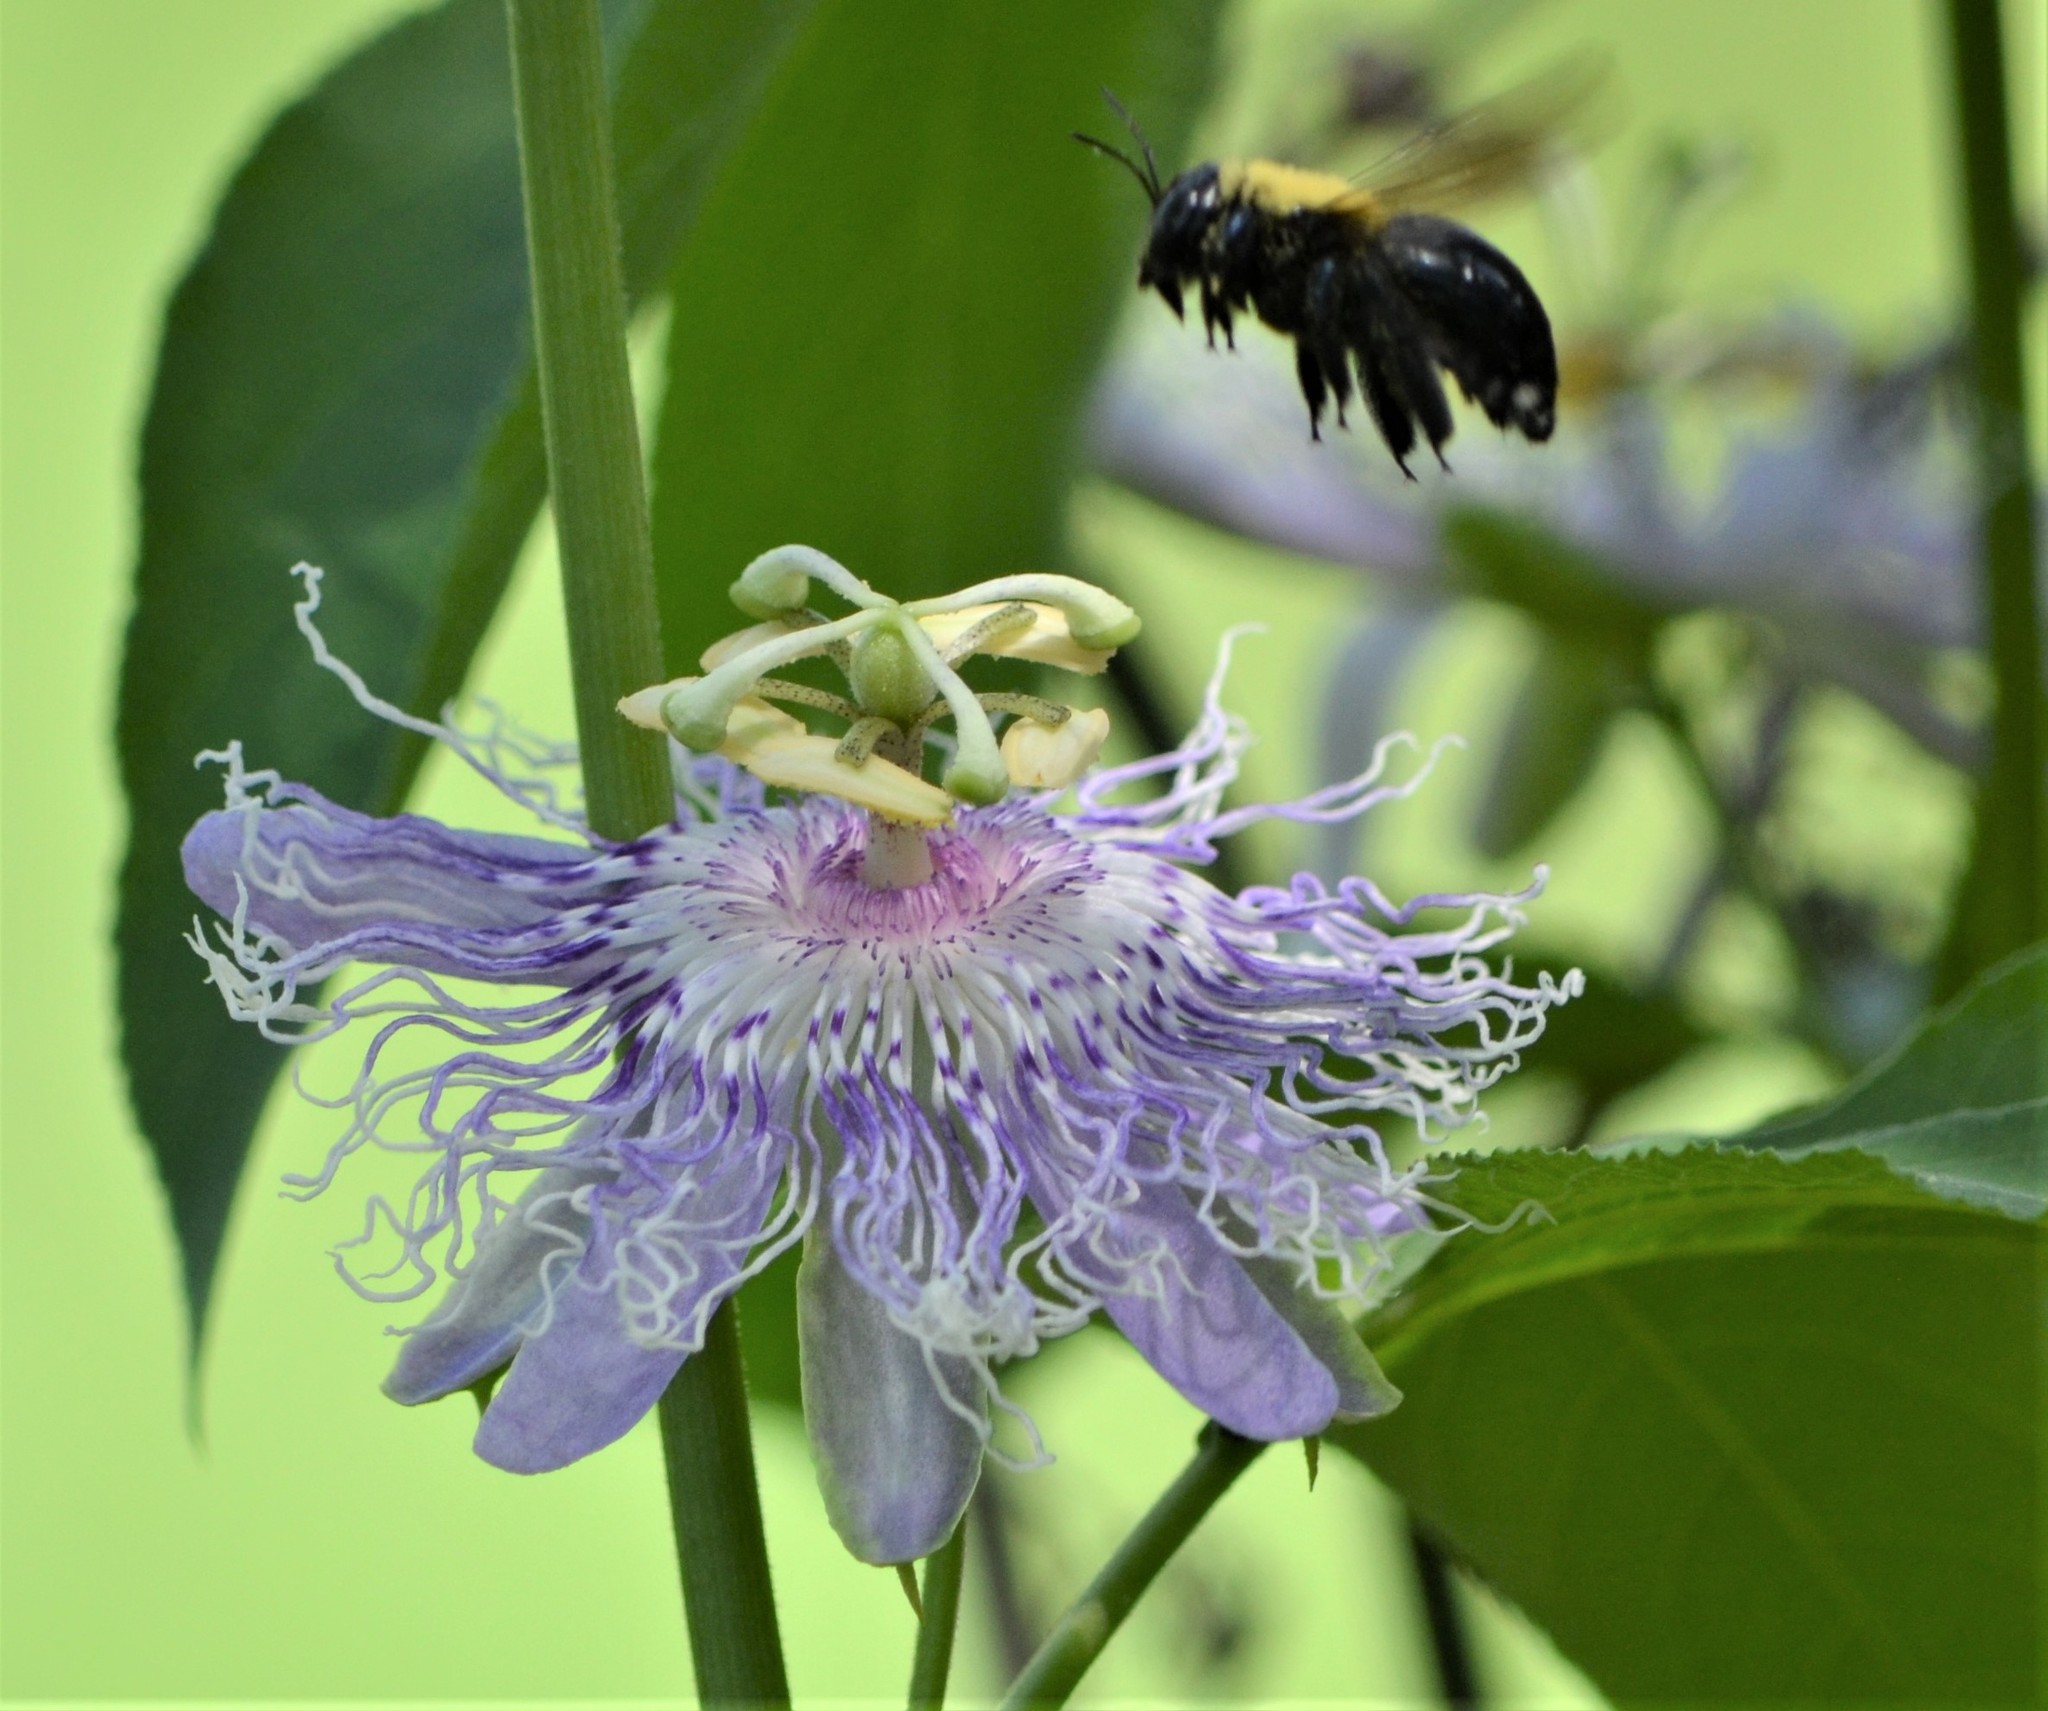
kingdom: Animalia
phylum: Arthropoda
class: Insecta
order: Hymenoptera
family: Apidae
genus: Xylocopa
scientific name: Xylocopa micans
